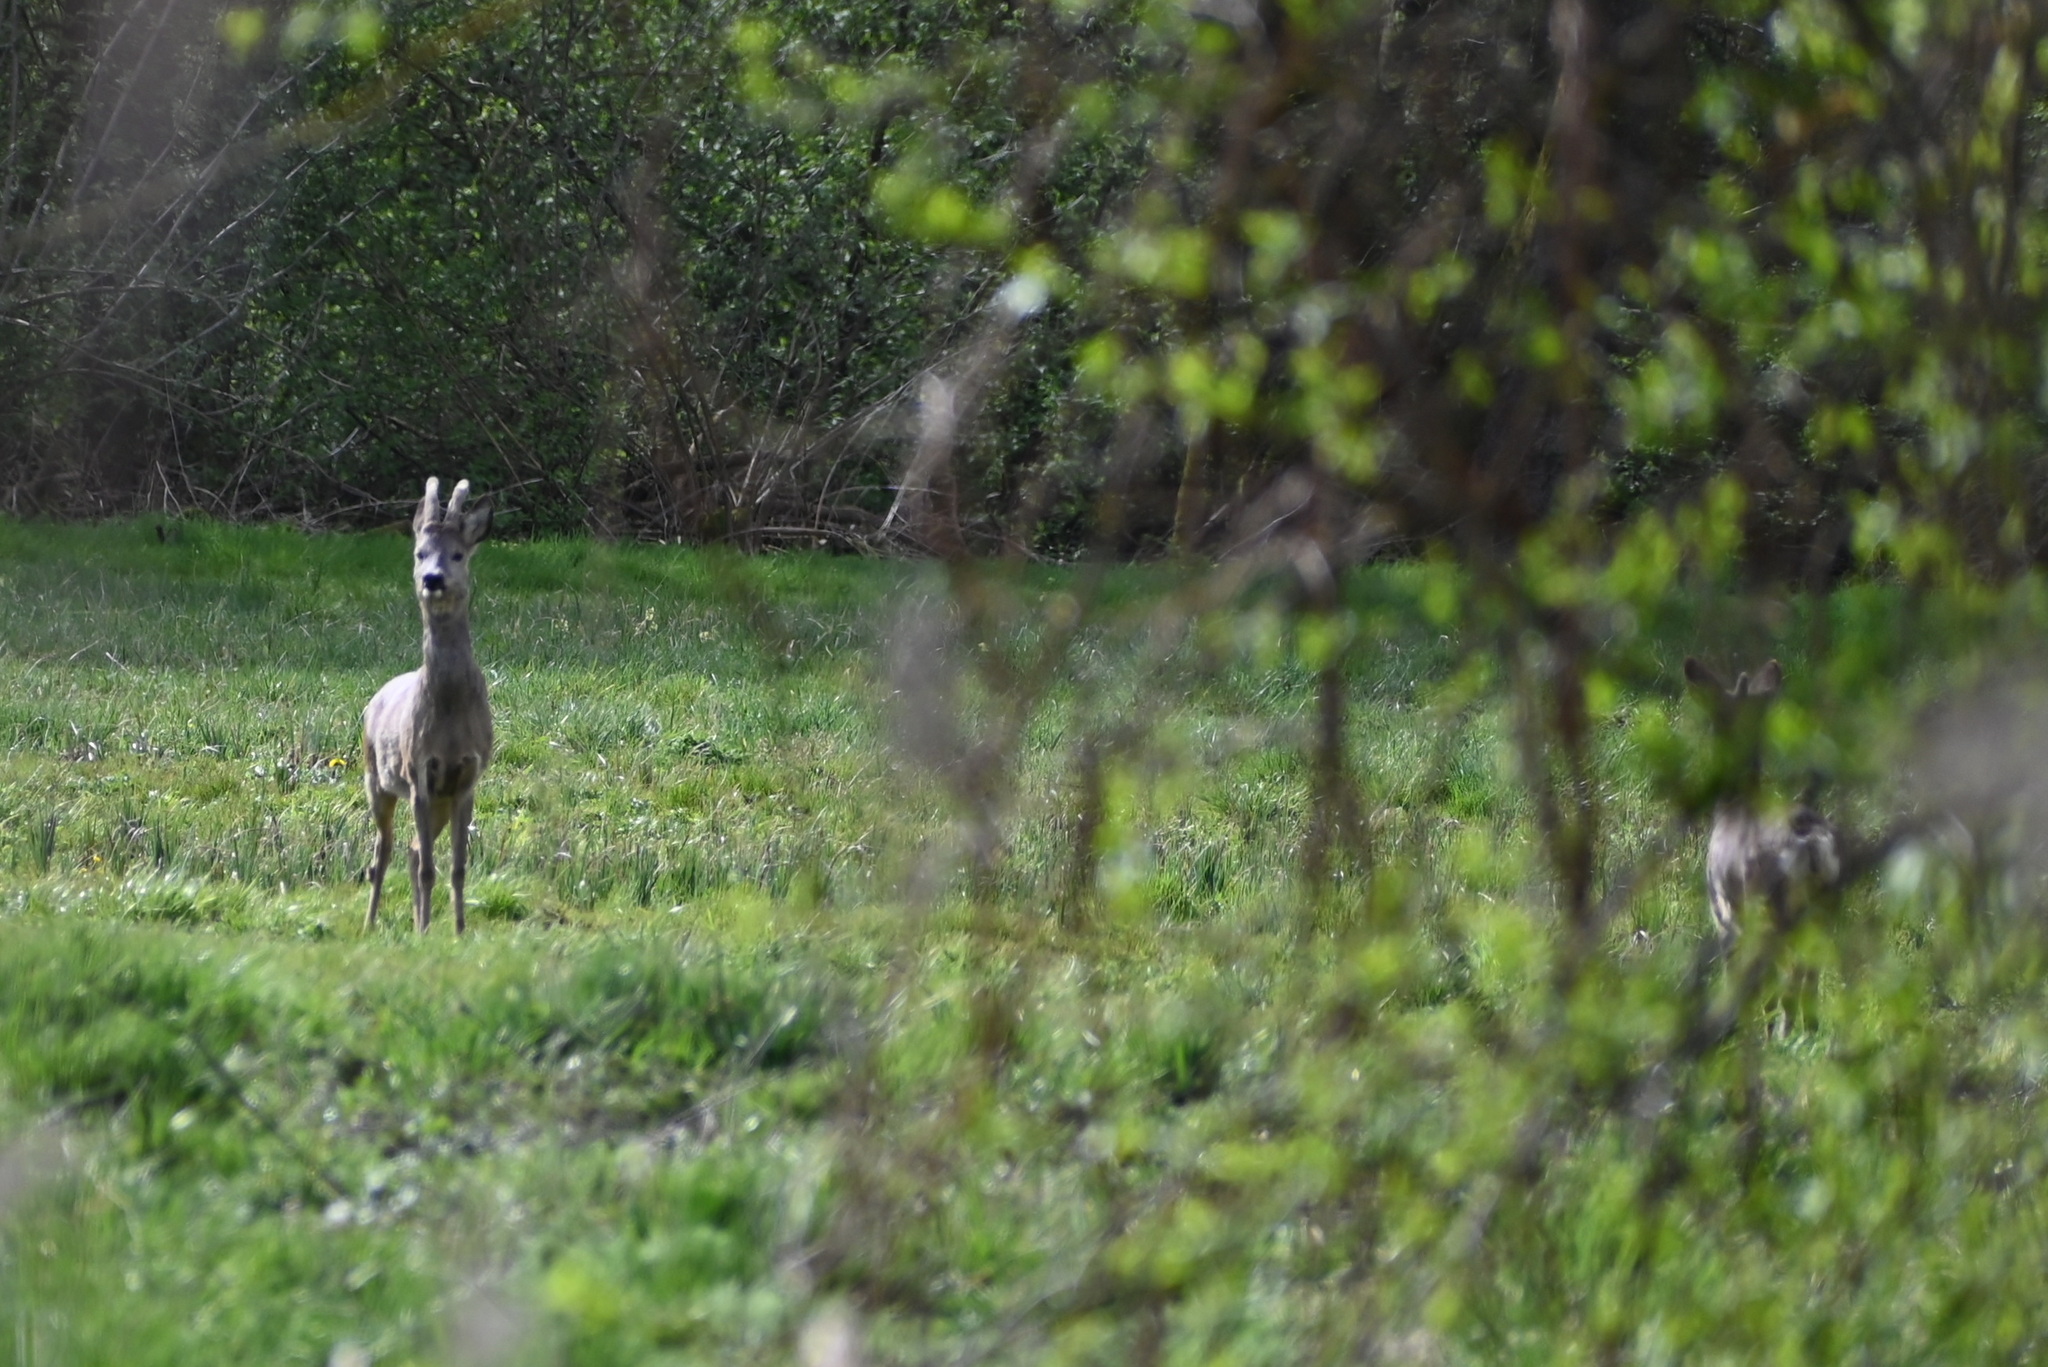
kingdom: Animalia
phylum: Chordata
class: Mammalia
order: Artiodactyla
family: Cervidae
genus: Capreolus
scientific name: Capreolus capreolus
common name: Western roe deer
